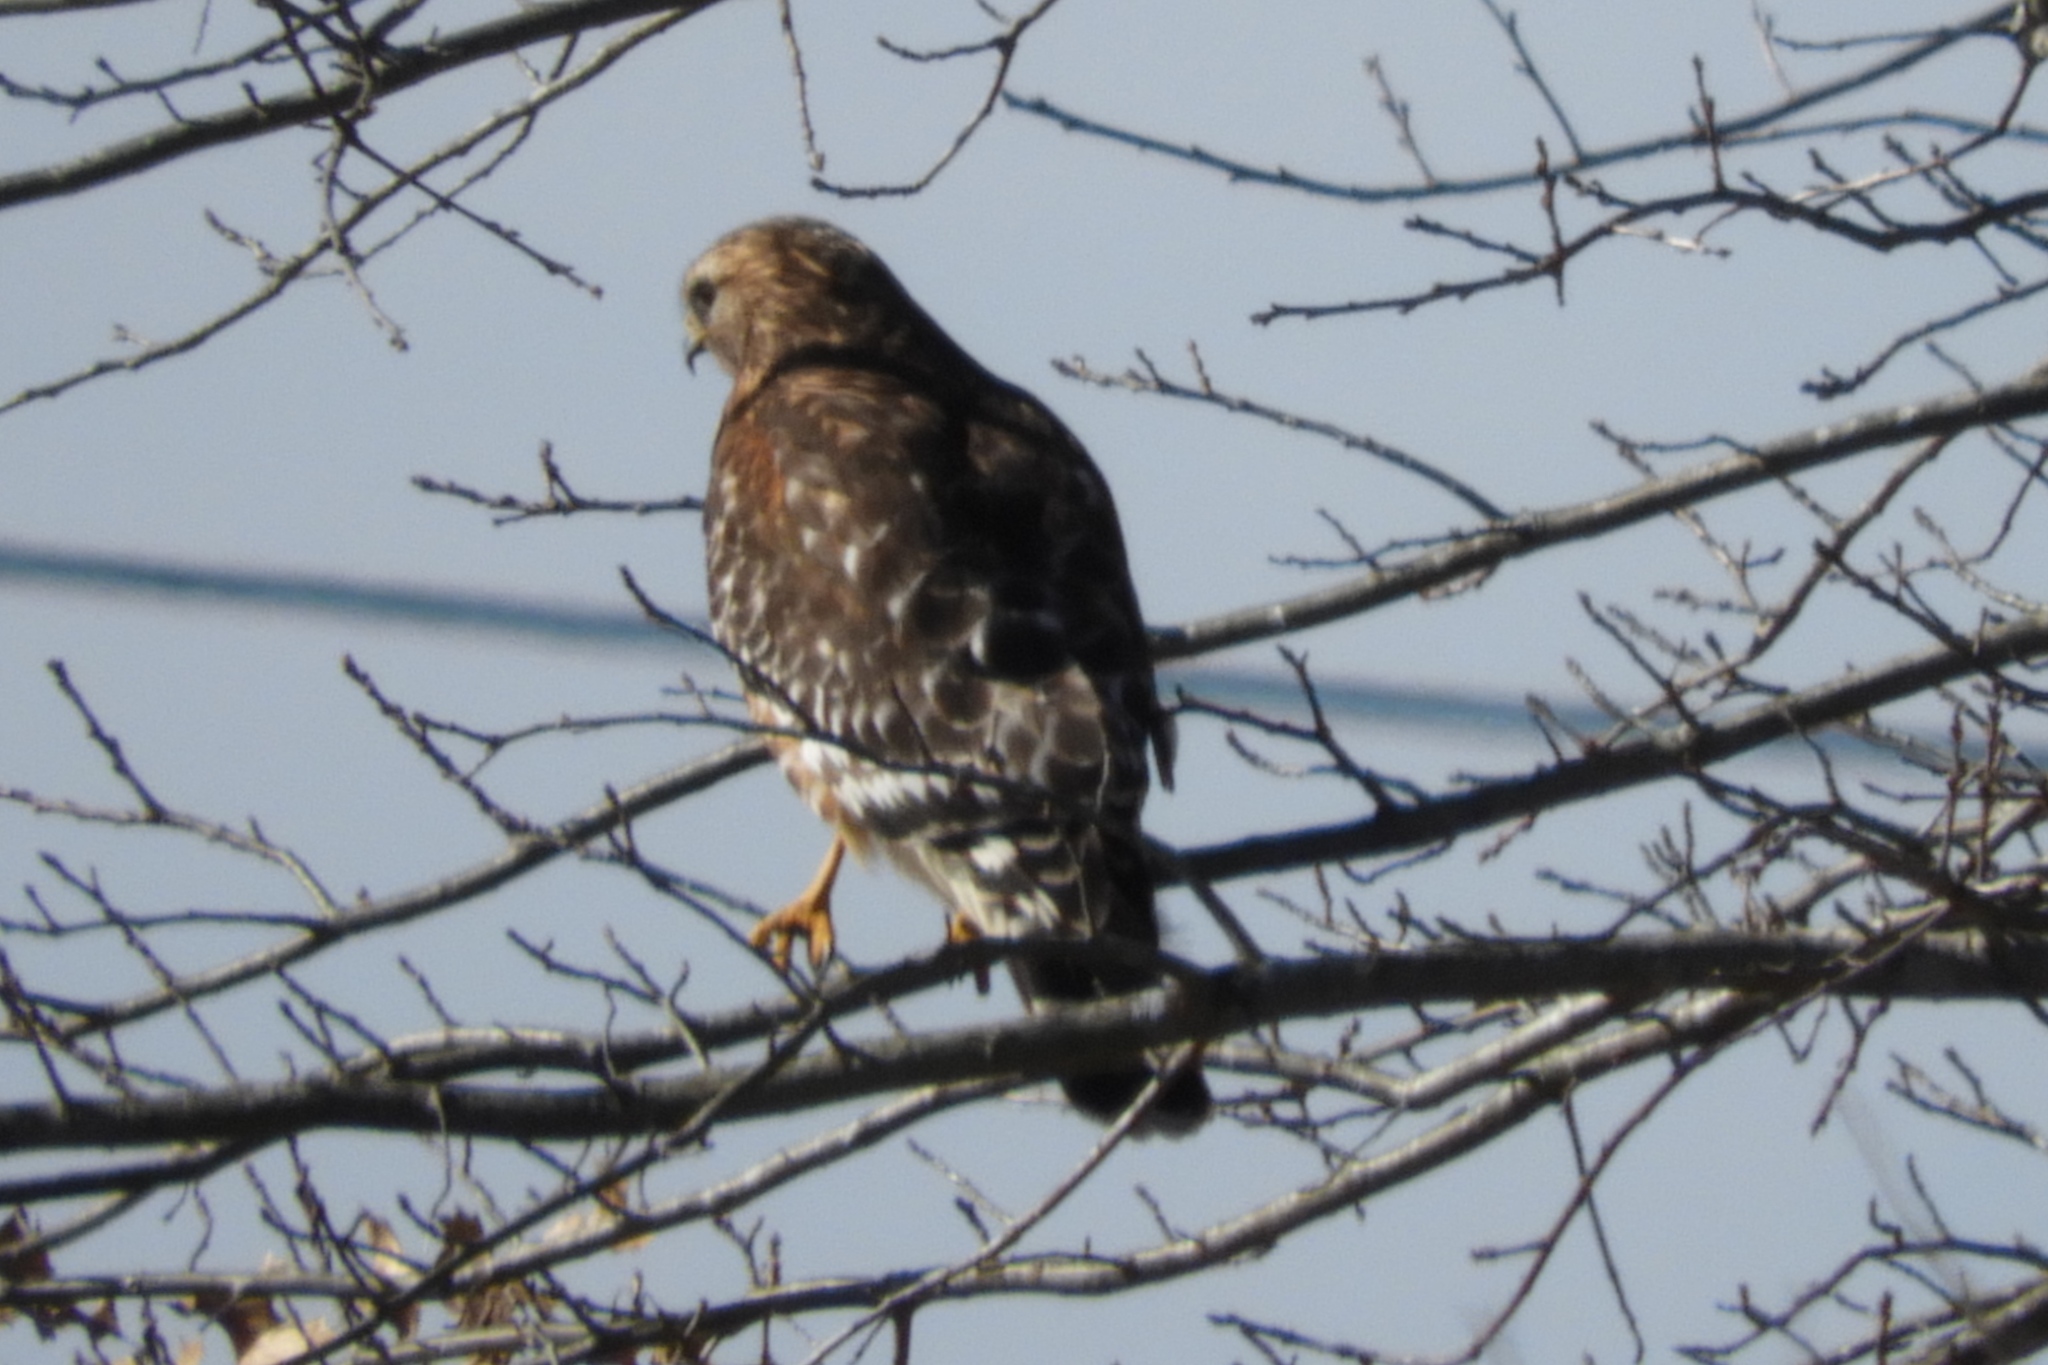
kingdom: Animalia
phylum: Chordata
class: Aves
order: Accipitriformes
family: Accipitridae
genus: Buteo
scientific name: Buteo lineatus
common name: Red-shouldered hawk
